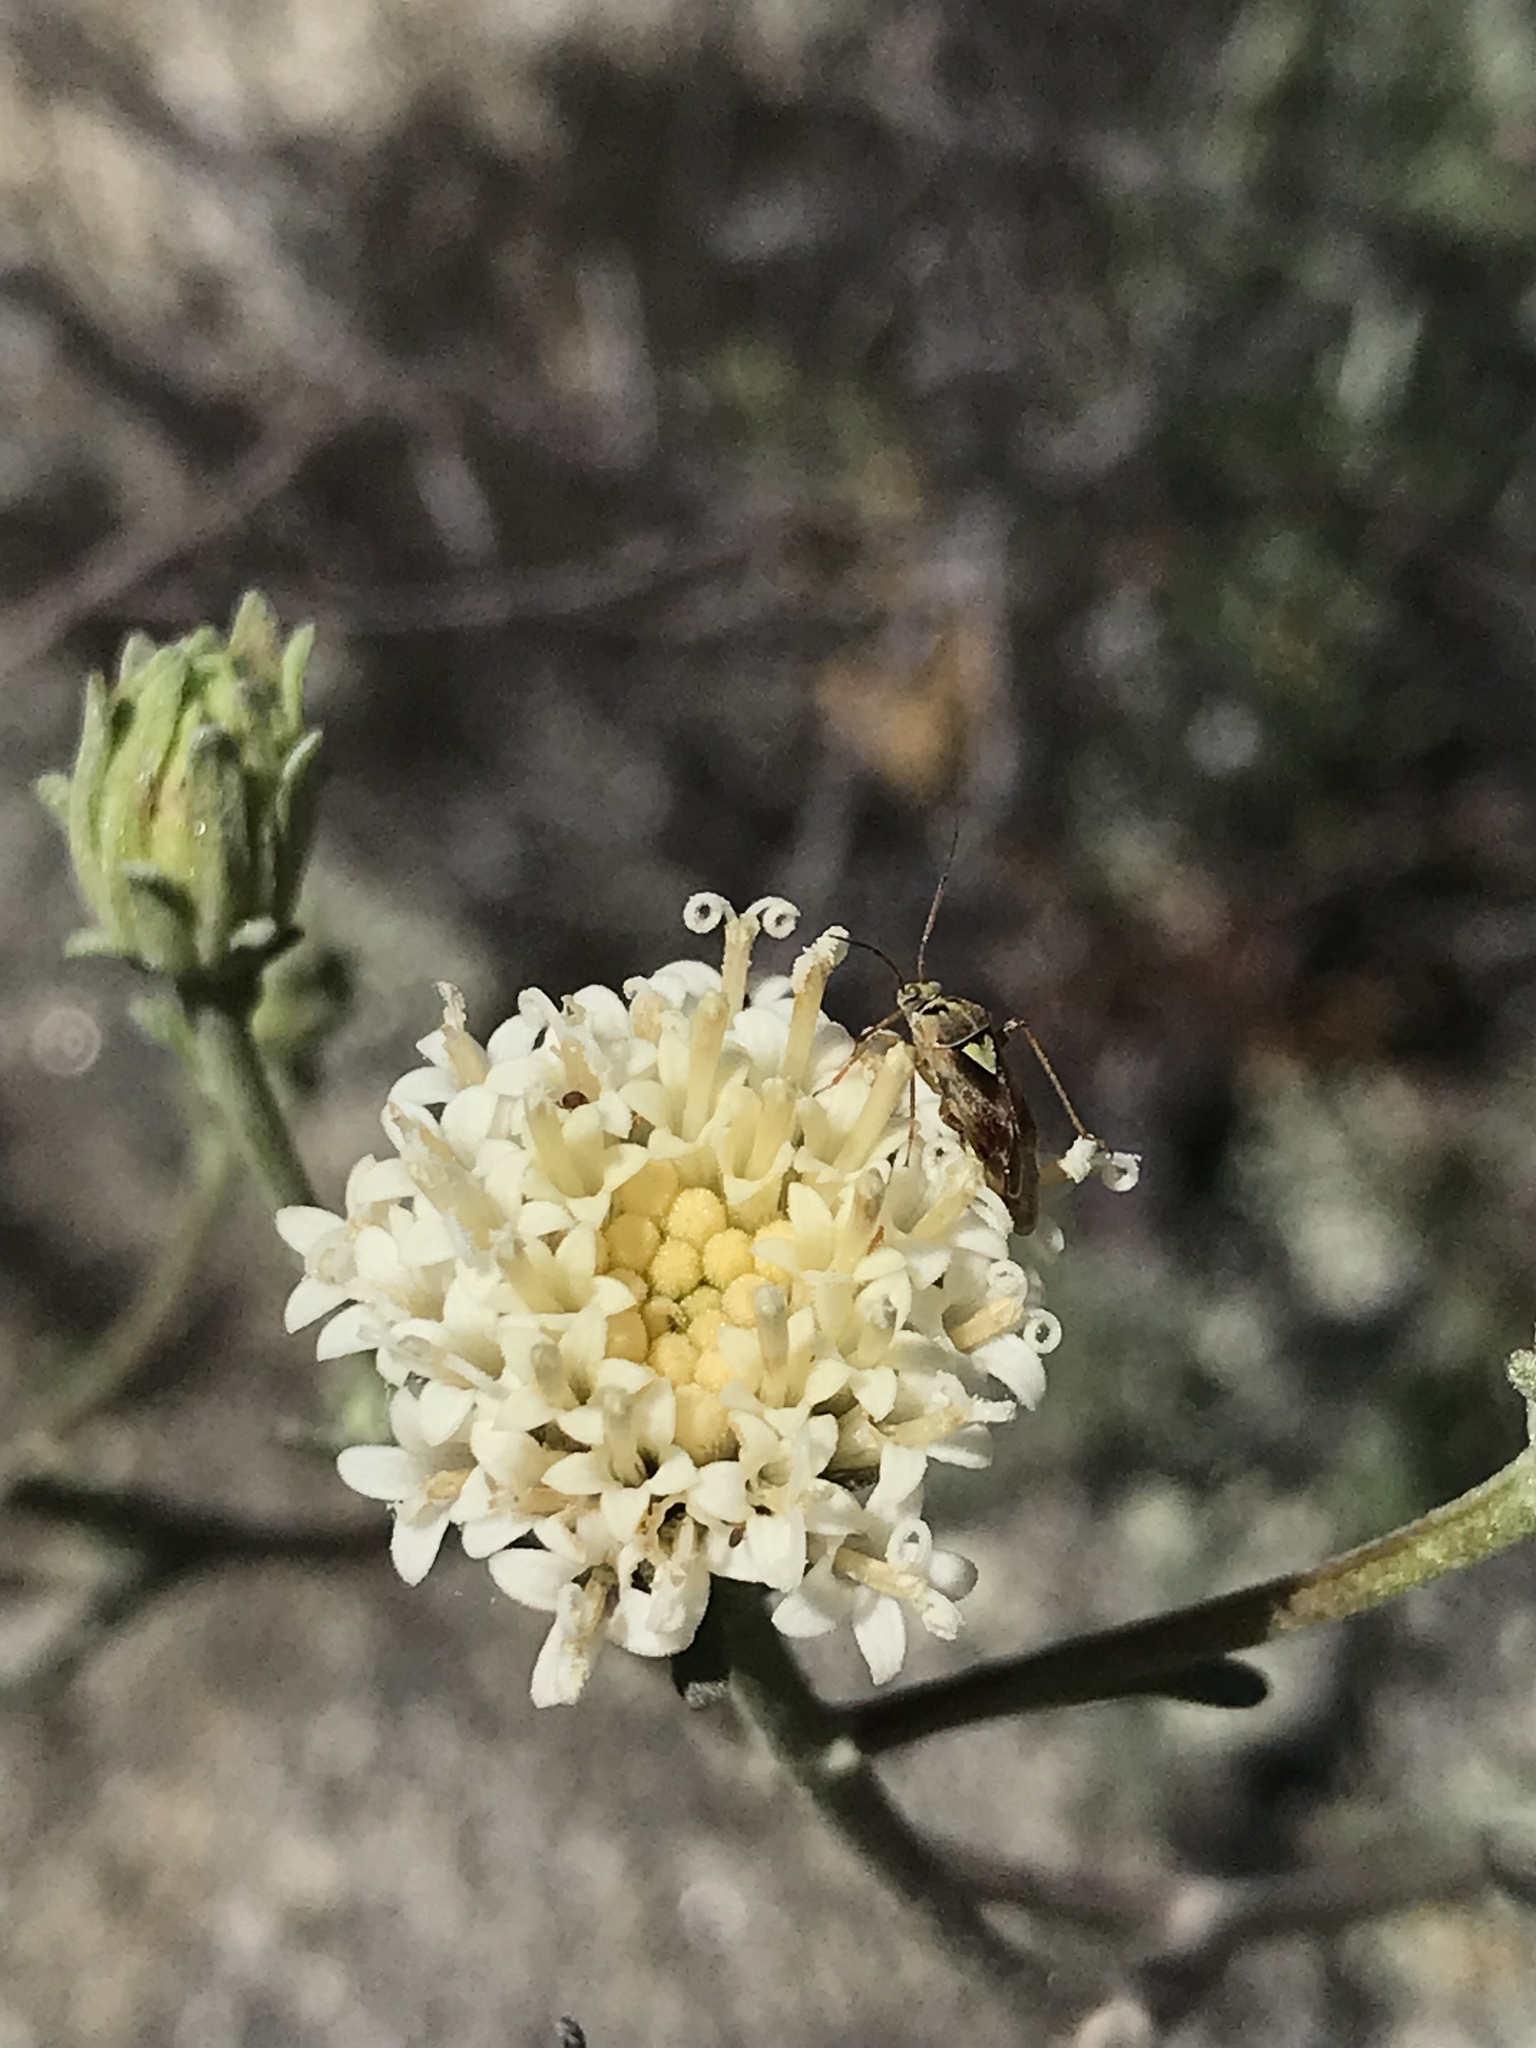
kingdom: Plantae
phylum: Tracheophyta
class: Magnoliopsida
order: Asterales
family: Asteraceae
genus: Chaenactis
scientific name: Chaenactis parishii
